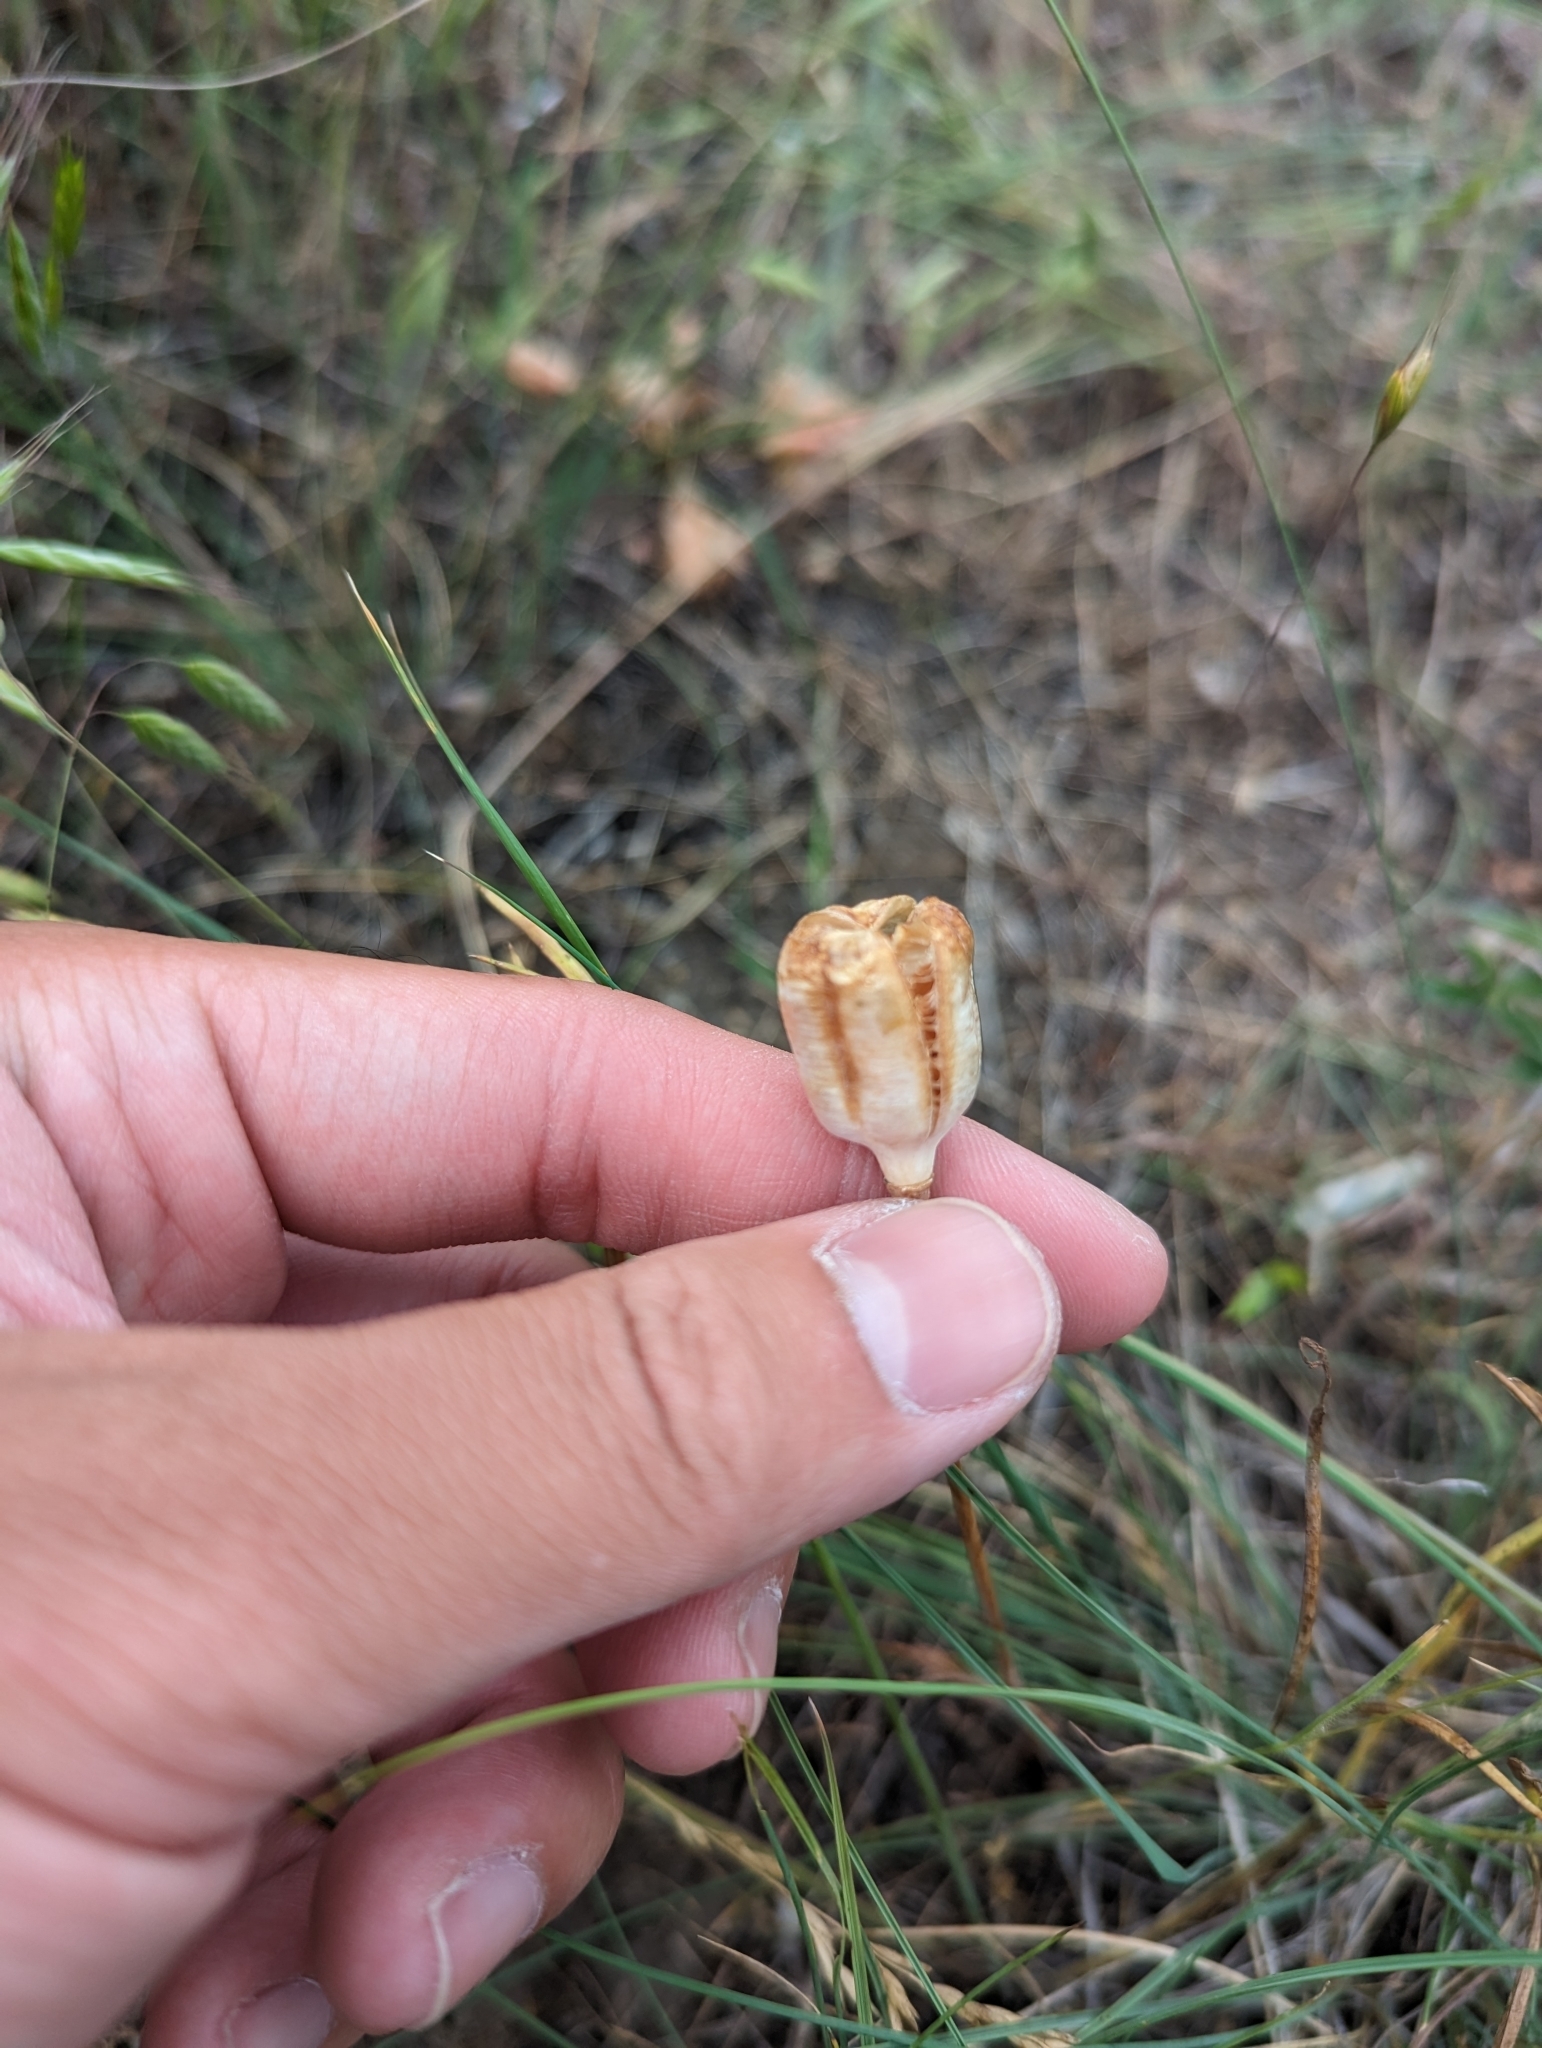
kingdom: Plantae
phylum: Tracheophyta
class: Liliopsida
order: Liliales
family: Liliaceae
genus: Fritillaria
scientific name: Fritillaria pudica
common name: Yellow fritillary
